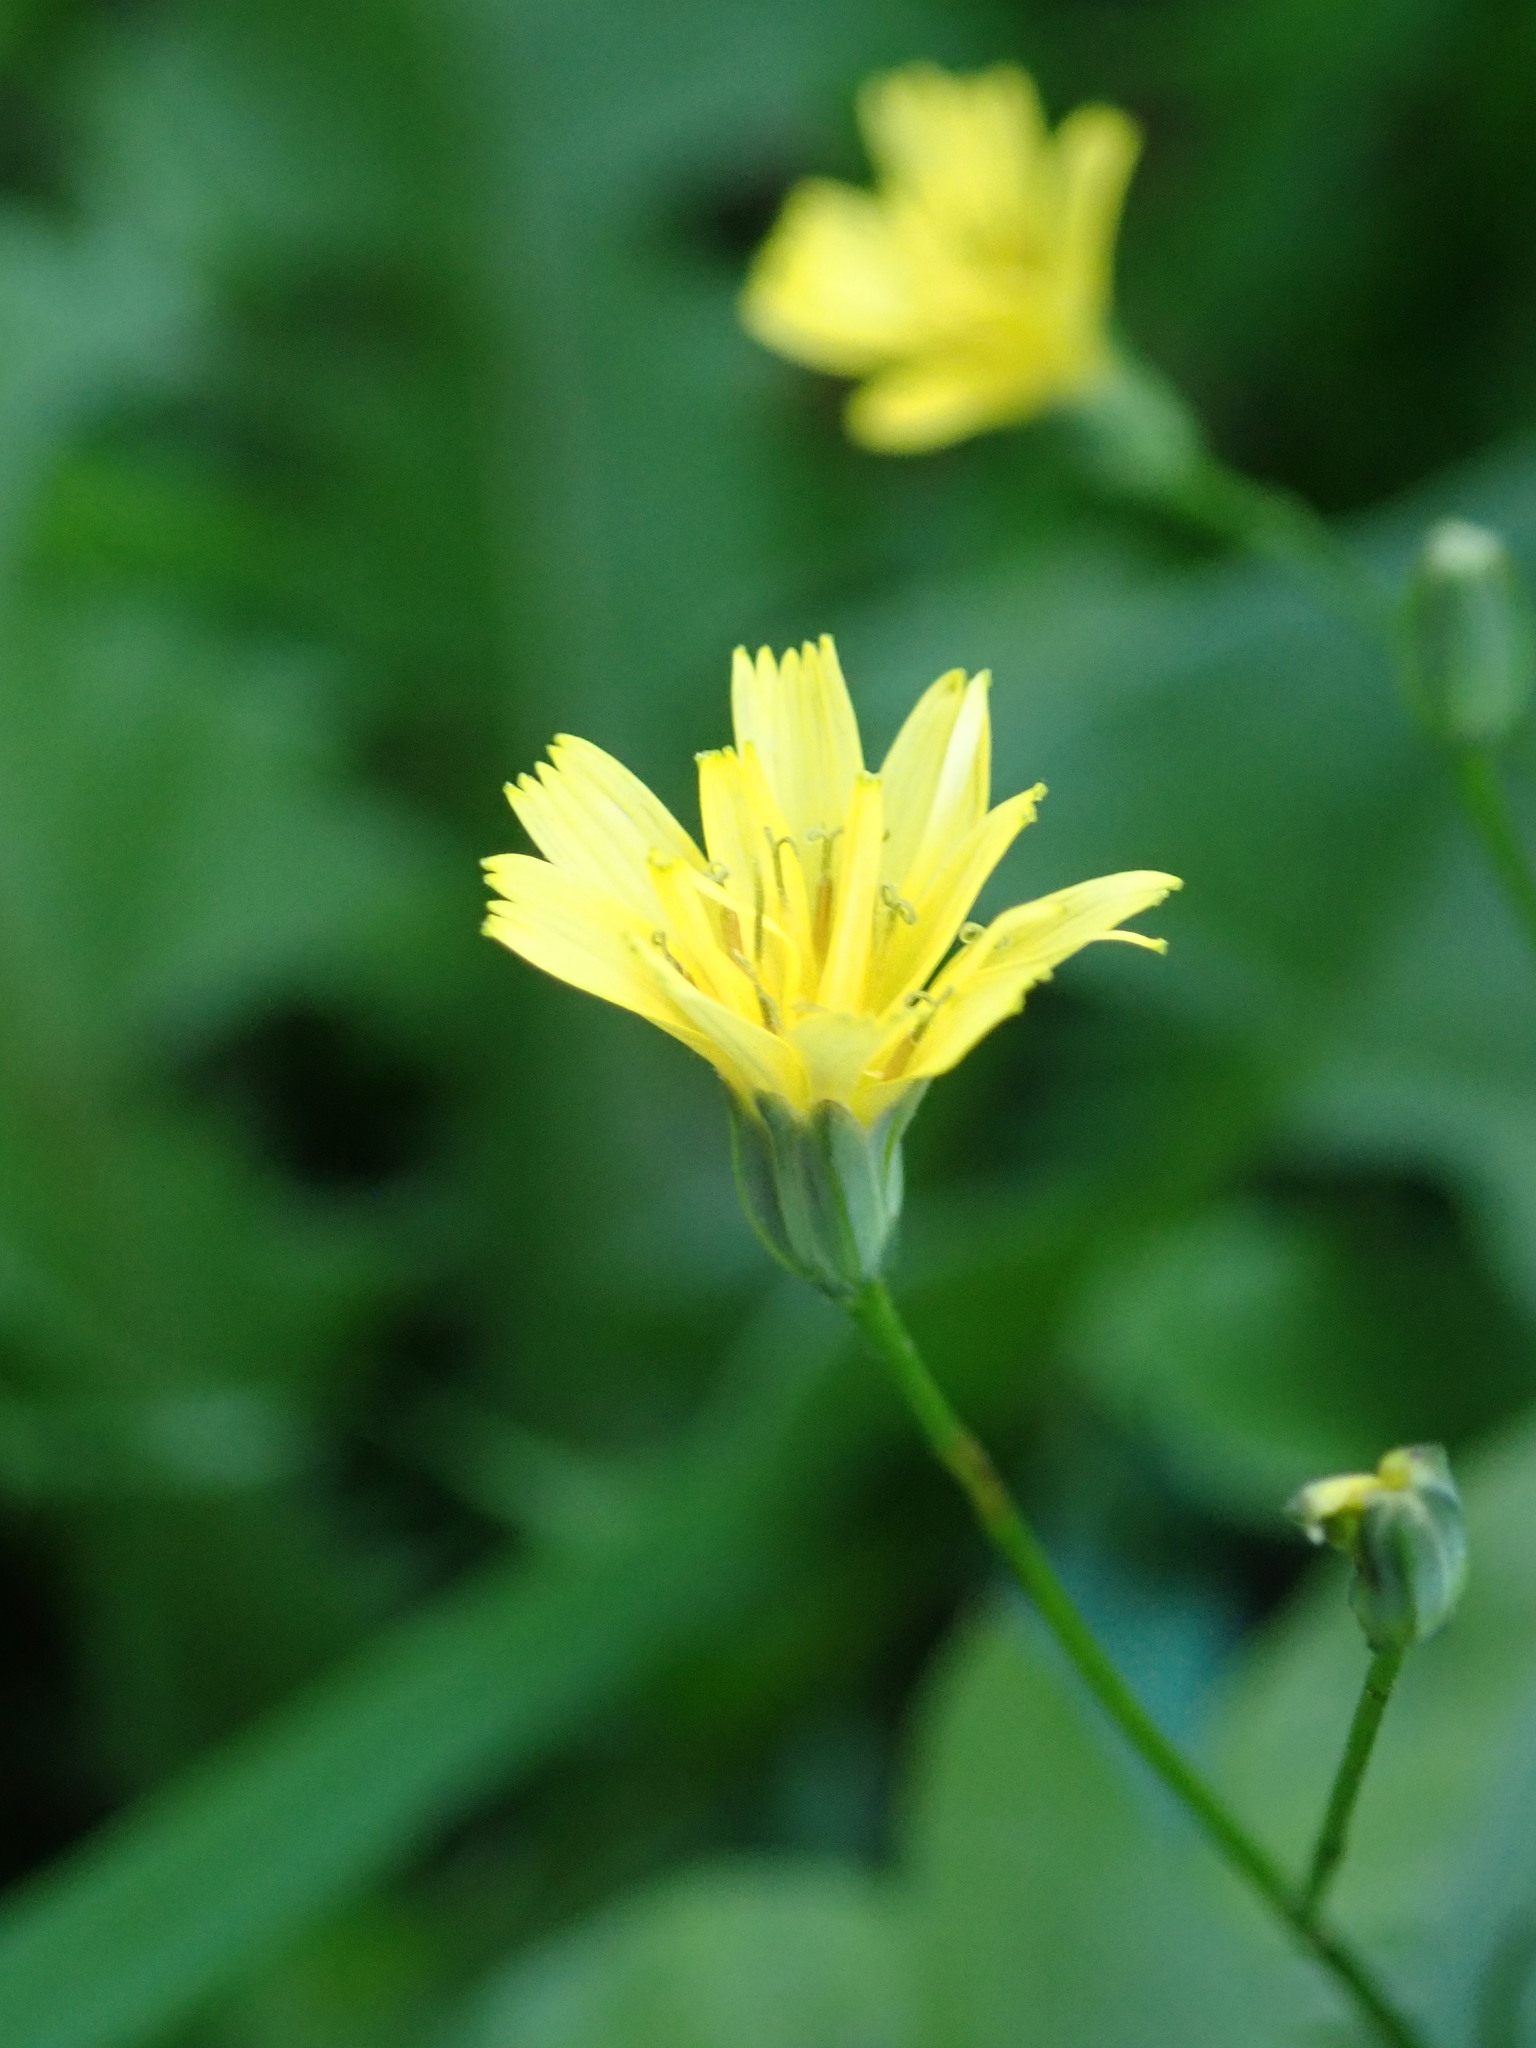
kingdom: Plantae
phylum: Tracheophyta
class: Magnoliopsida
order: Asterales
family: Asteraceae
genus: Lapsana
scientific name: Lapsana communis
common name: Nipplewort
